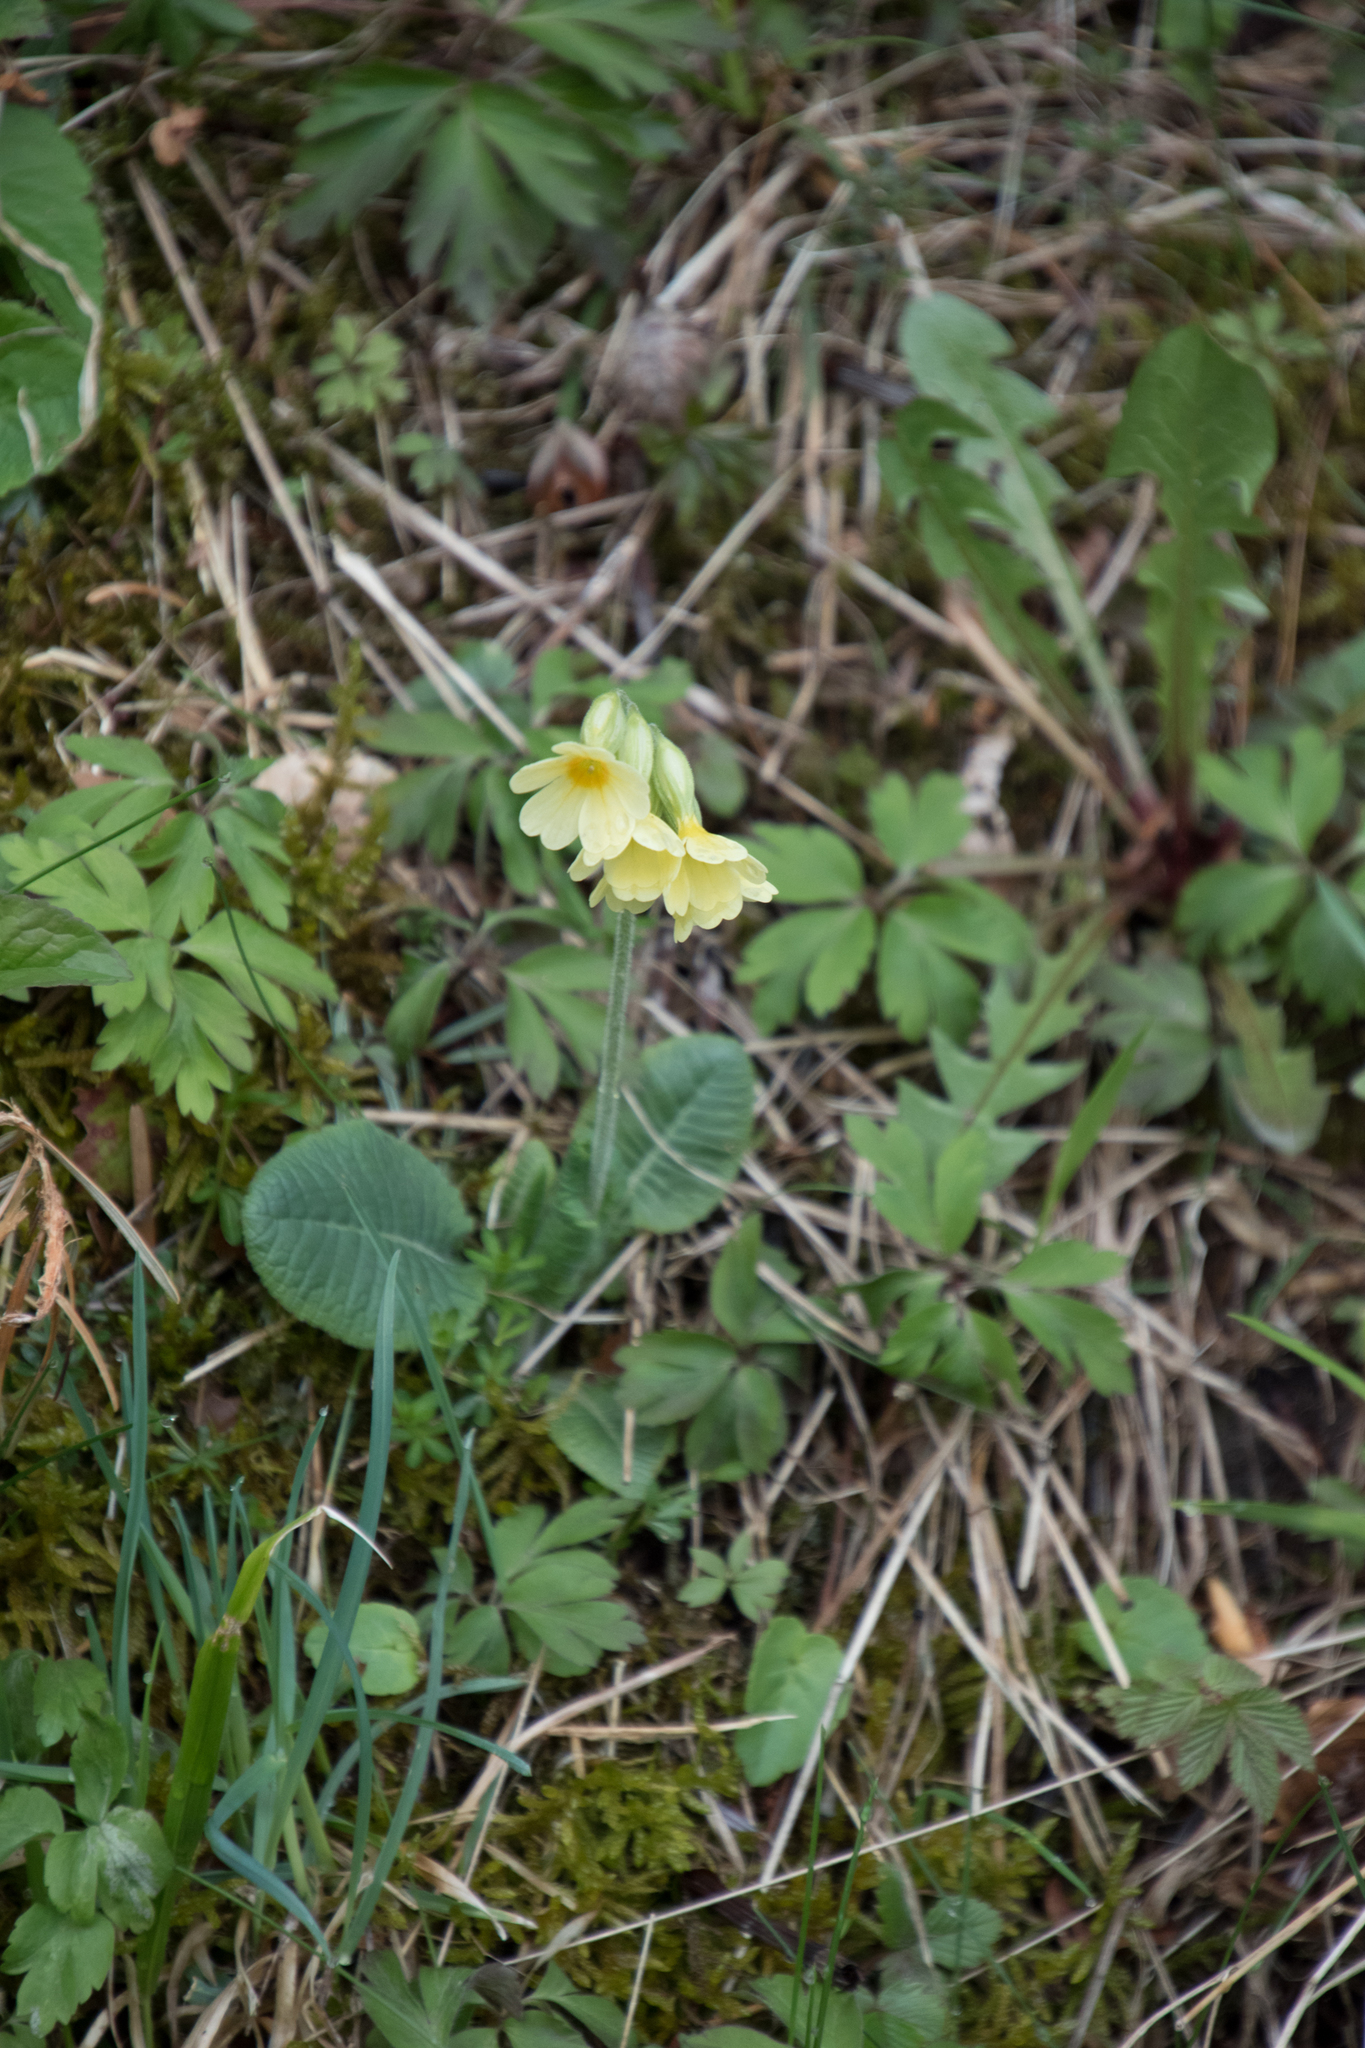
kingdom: Plantae
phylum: Tracheophyta
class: Magnoliopsida
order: Ericales
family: Primulaceae
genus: Primula
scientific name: Primula elatior
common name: Oxlip
